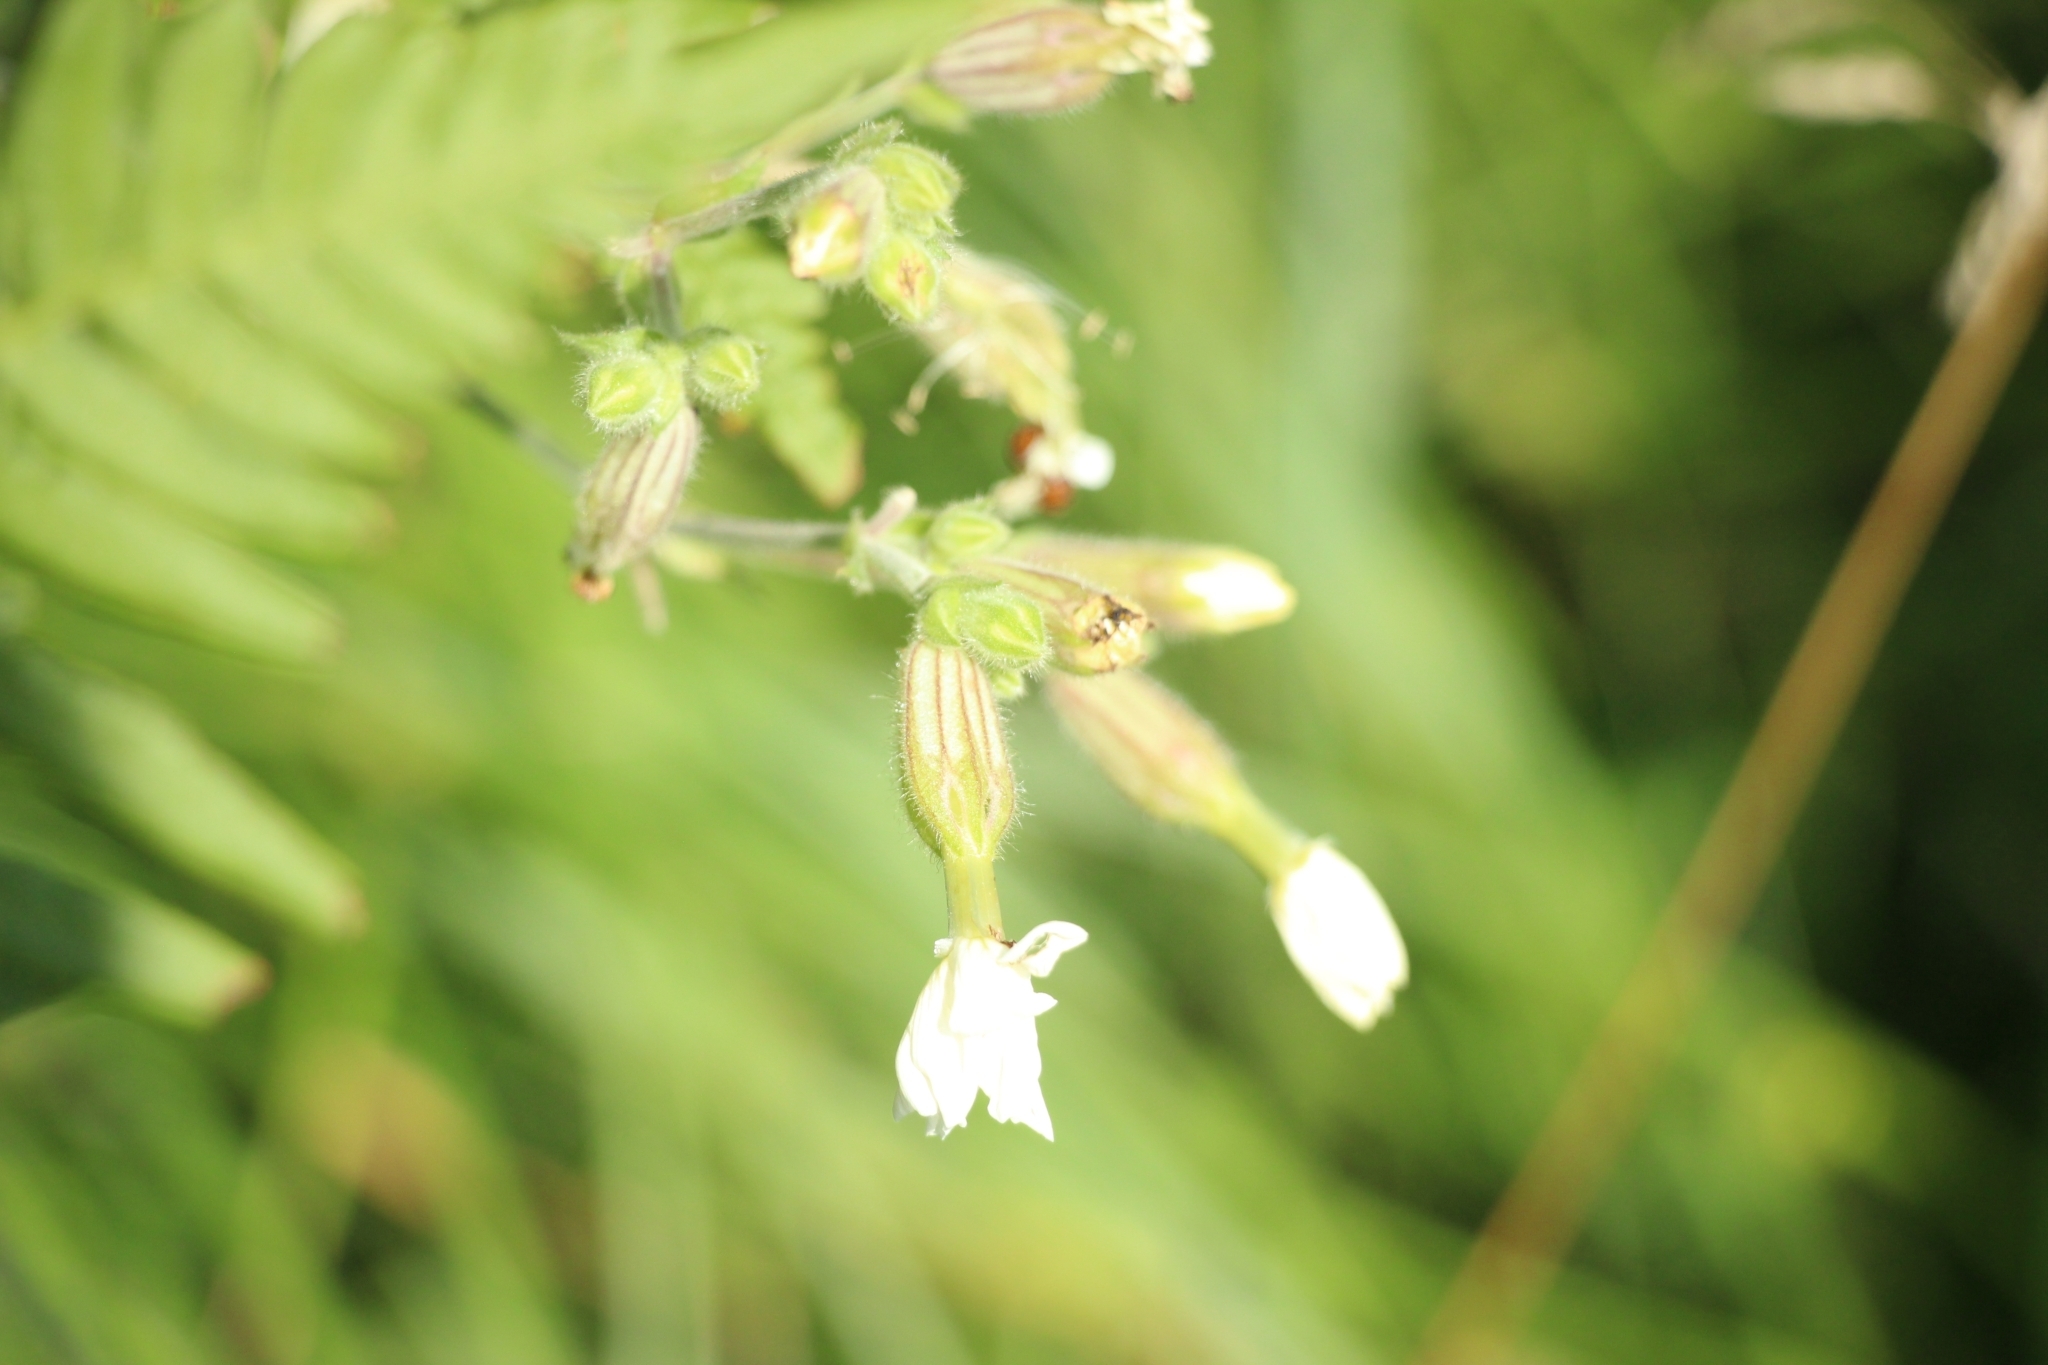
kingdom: Plantae
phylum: Tracheophyta
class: Magnoliopsida
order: Caryophyllales
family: Caryophyllaceae
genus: Silene
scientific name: Silene latifolia
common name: White campion
